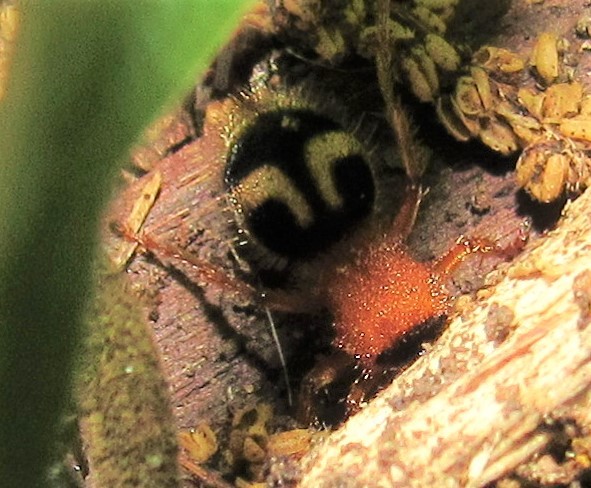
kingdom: Animalia
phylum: Arthropoda
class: Insecta
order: Hymenoptera
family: Mutillidae
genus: Pseudomethoca
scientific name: Pseudomethoca
